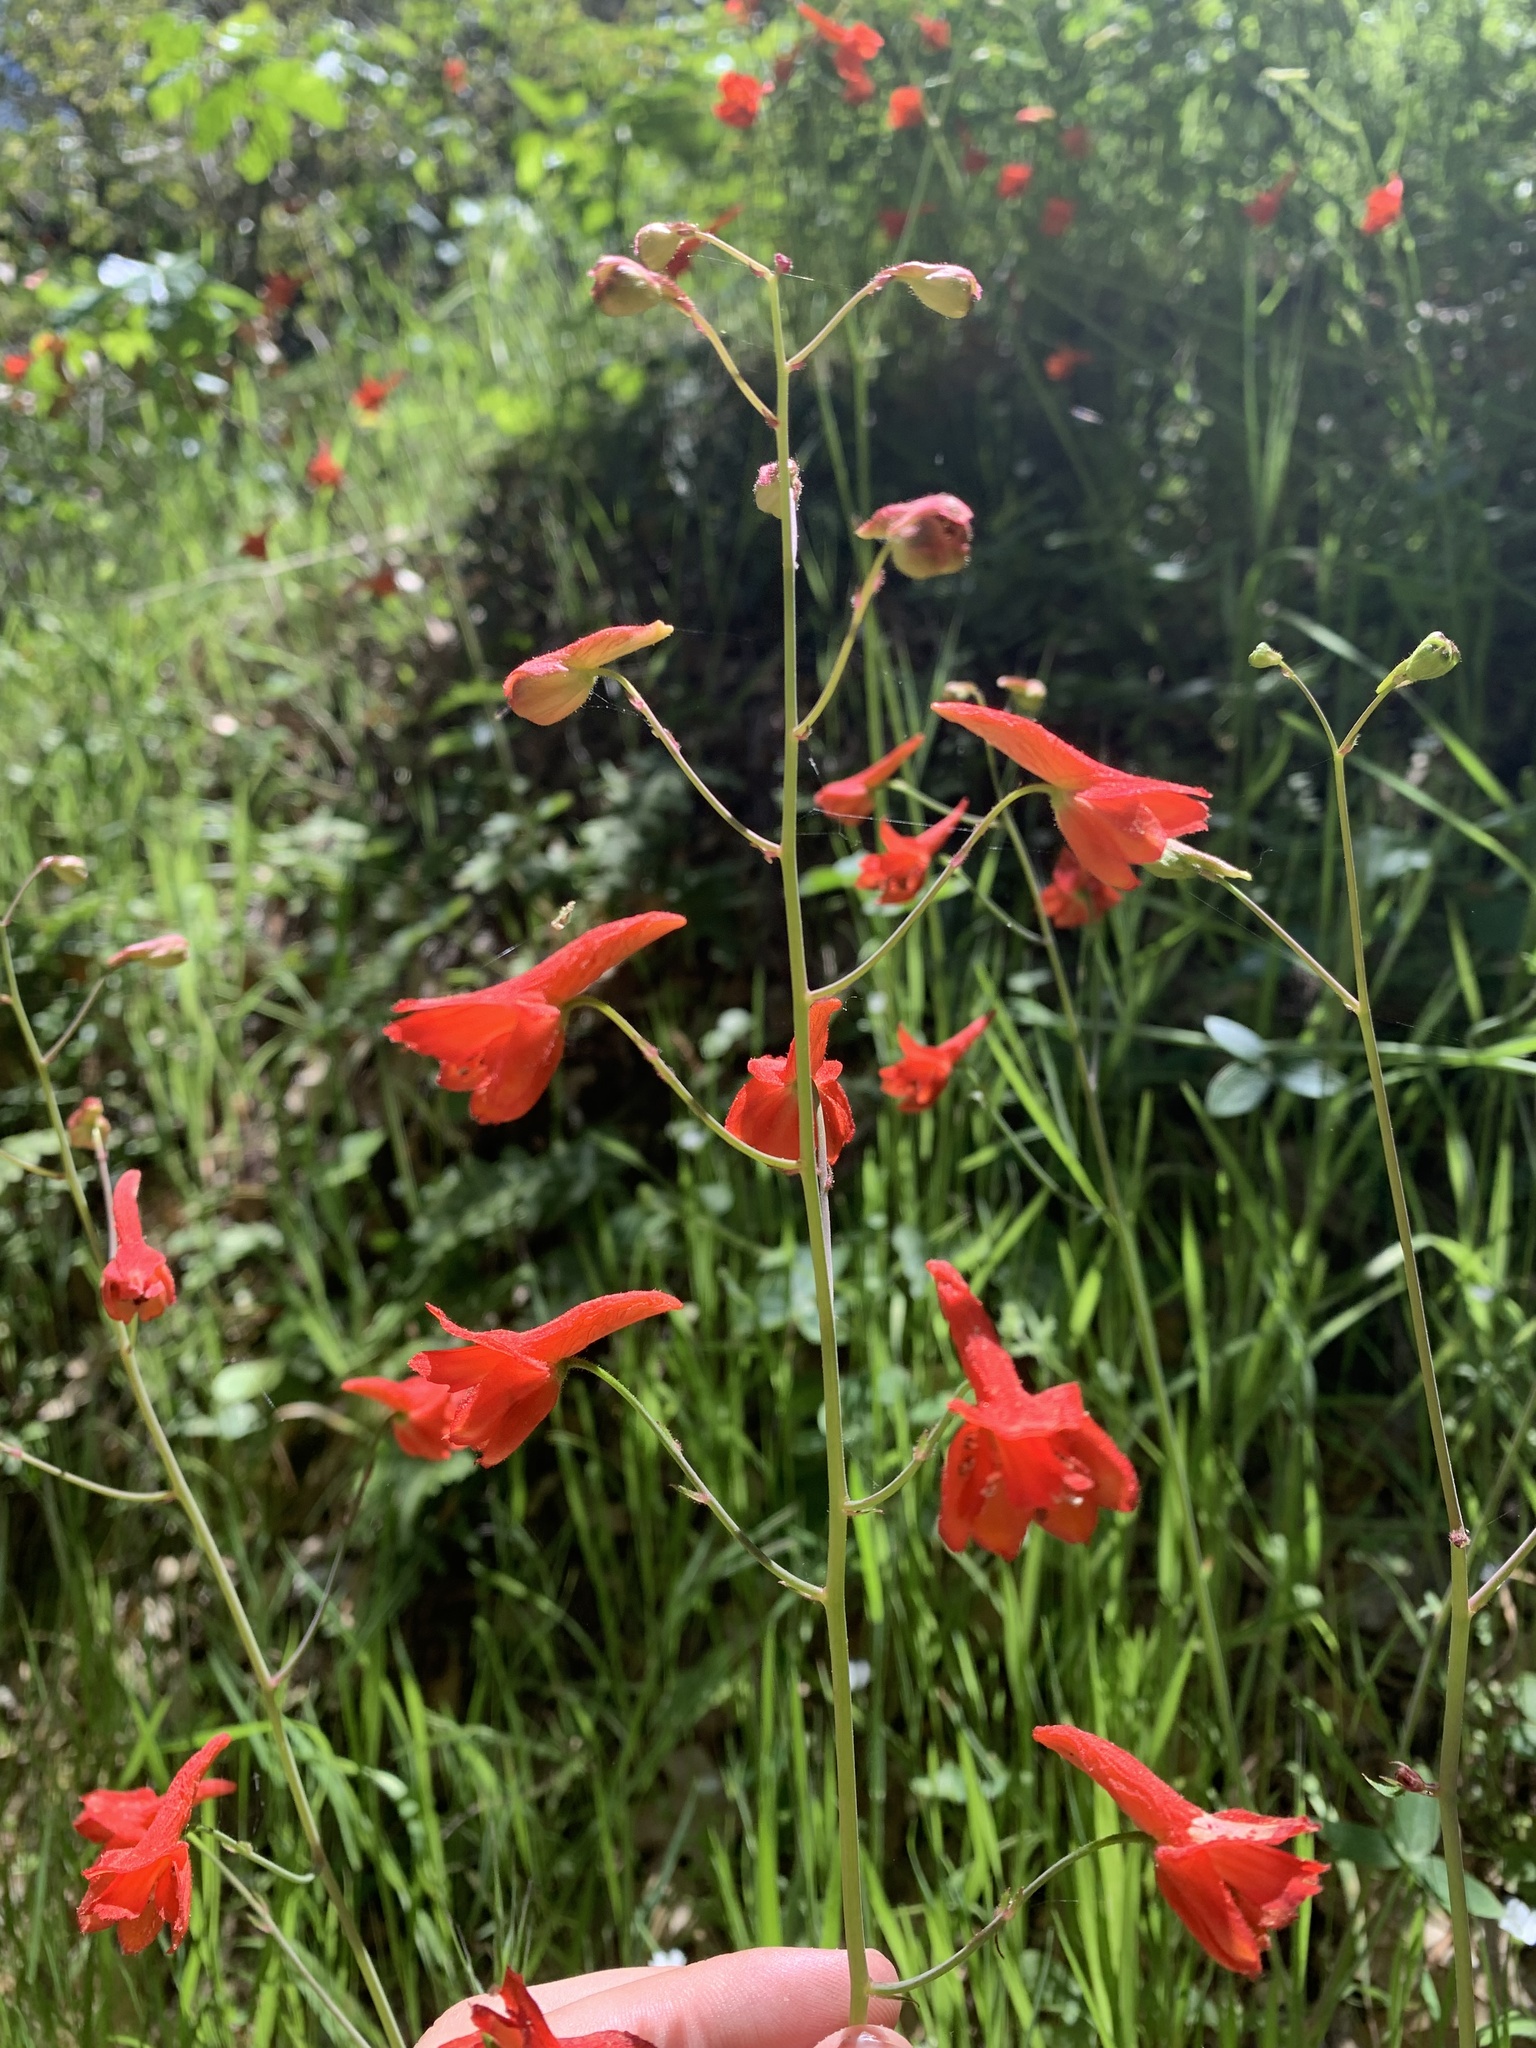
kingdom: Plantae
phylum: Tracheophyta
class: Magnoliopsida
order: Ranunculales
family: Ranunculaceae
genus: Delphinium
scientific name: Delphinium nudicaule
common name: Red larkspur
